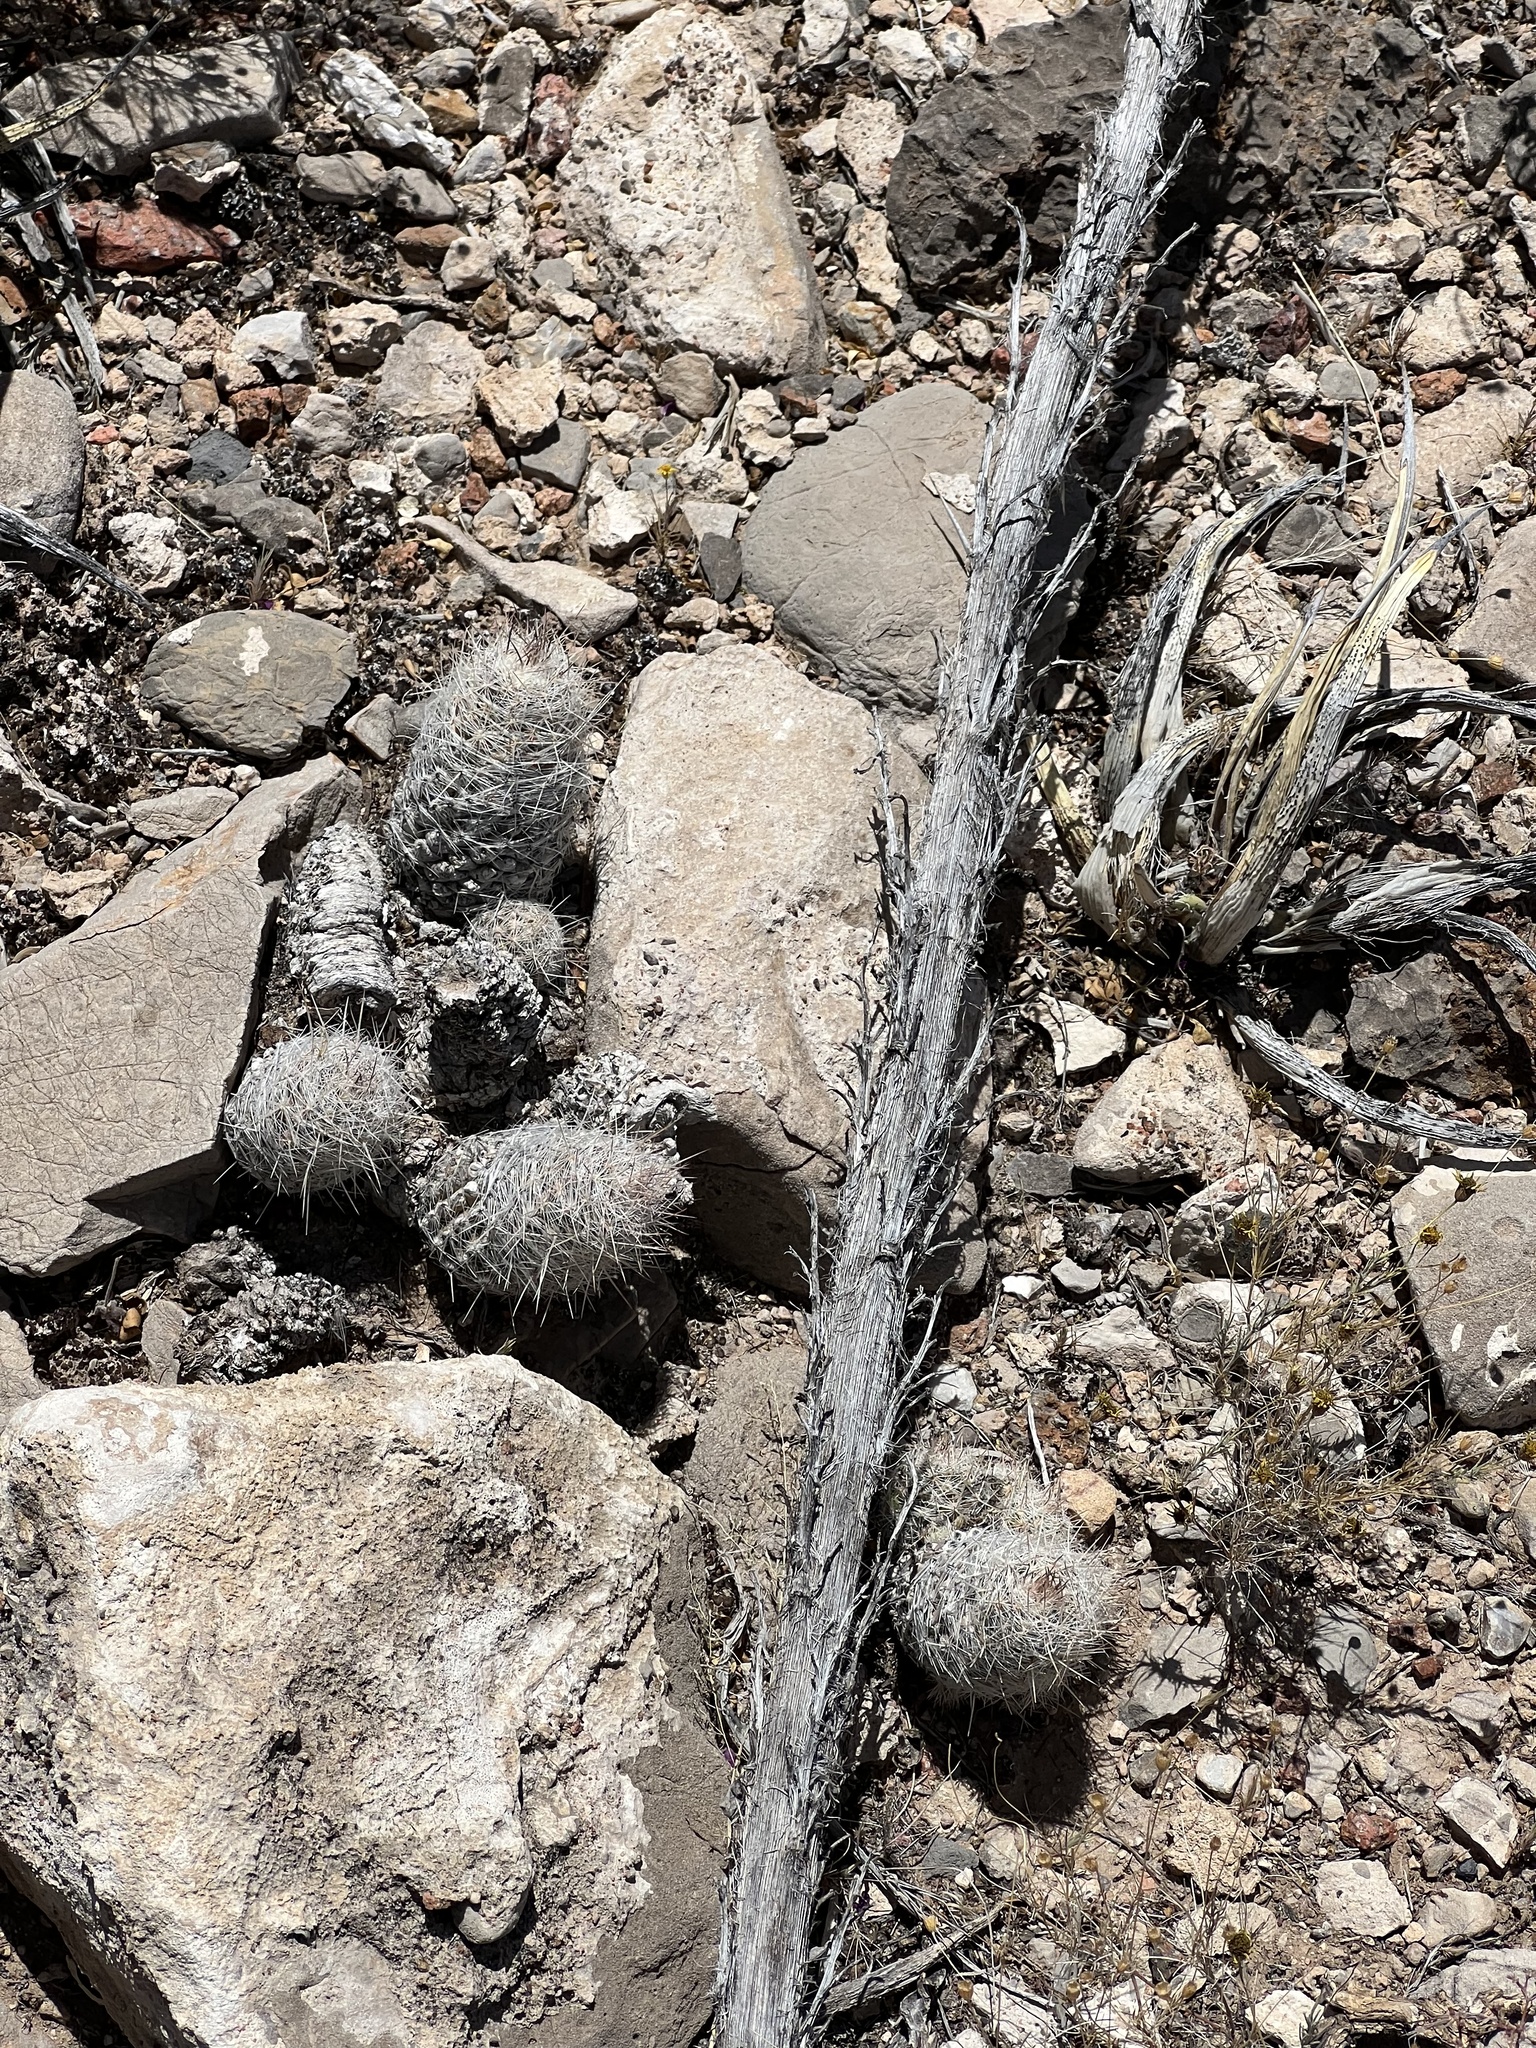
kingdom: Plantae
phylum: Tracheophyta
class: Magnoliopsida
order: Caryophyllales
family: Cactaceae
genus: Pelecyphora
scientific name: Pelecyphora tuberculosa
